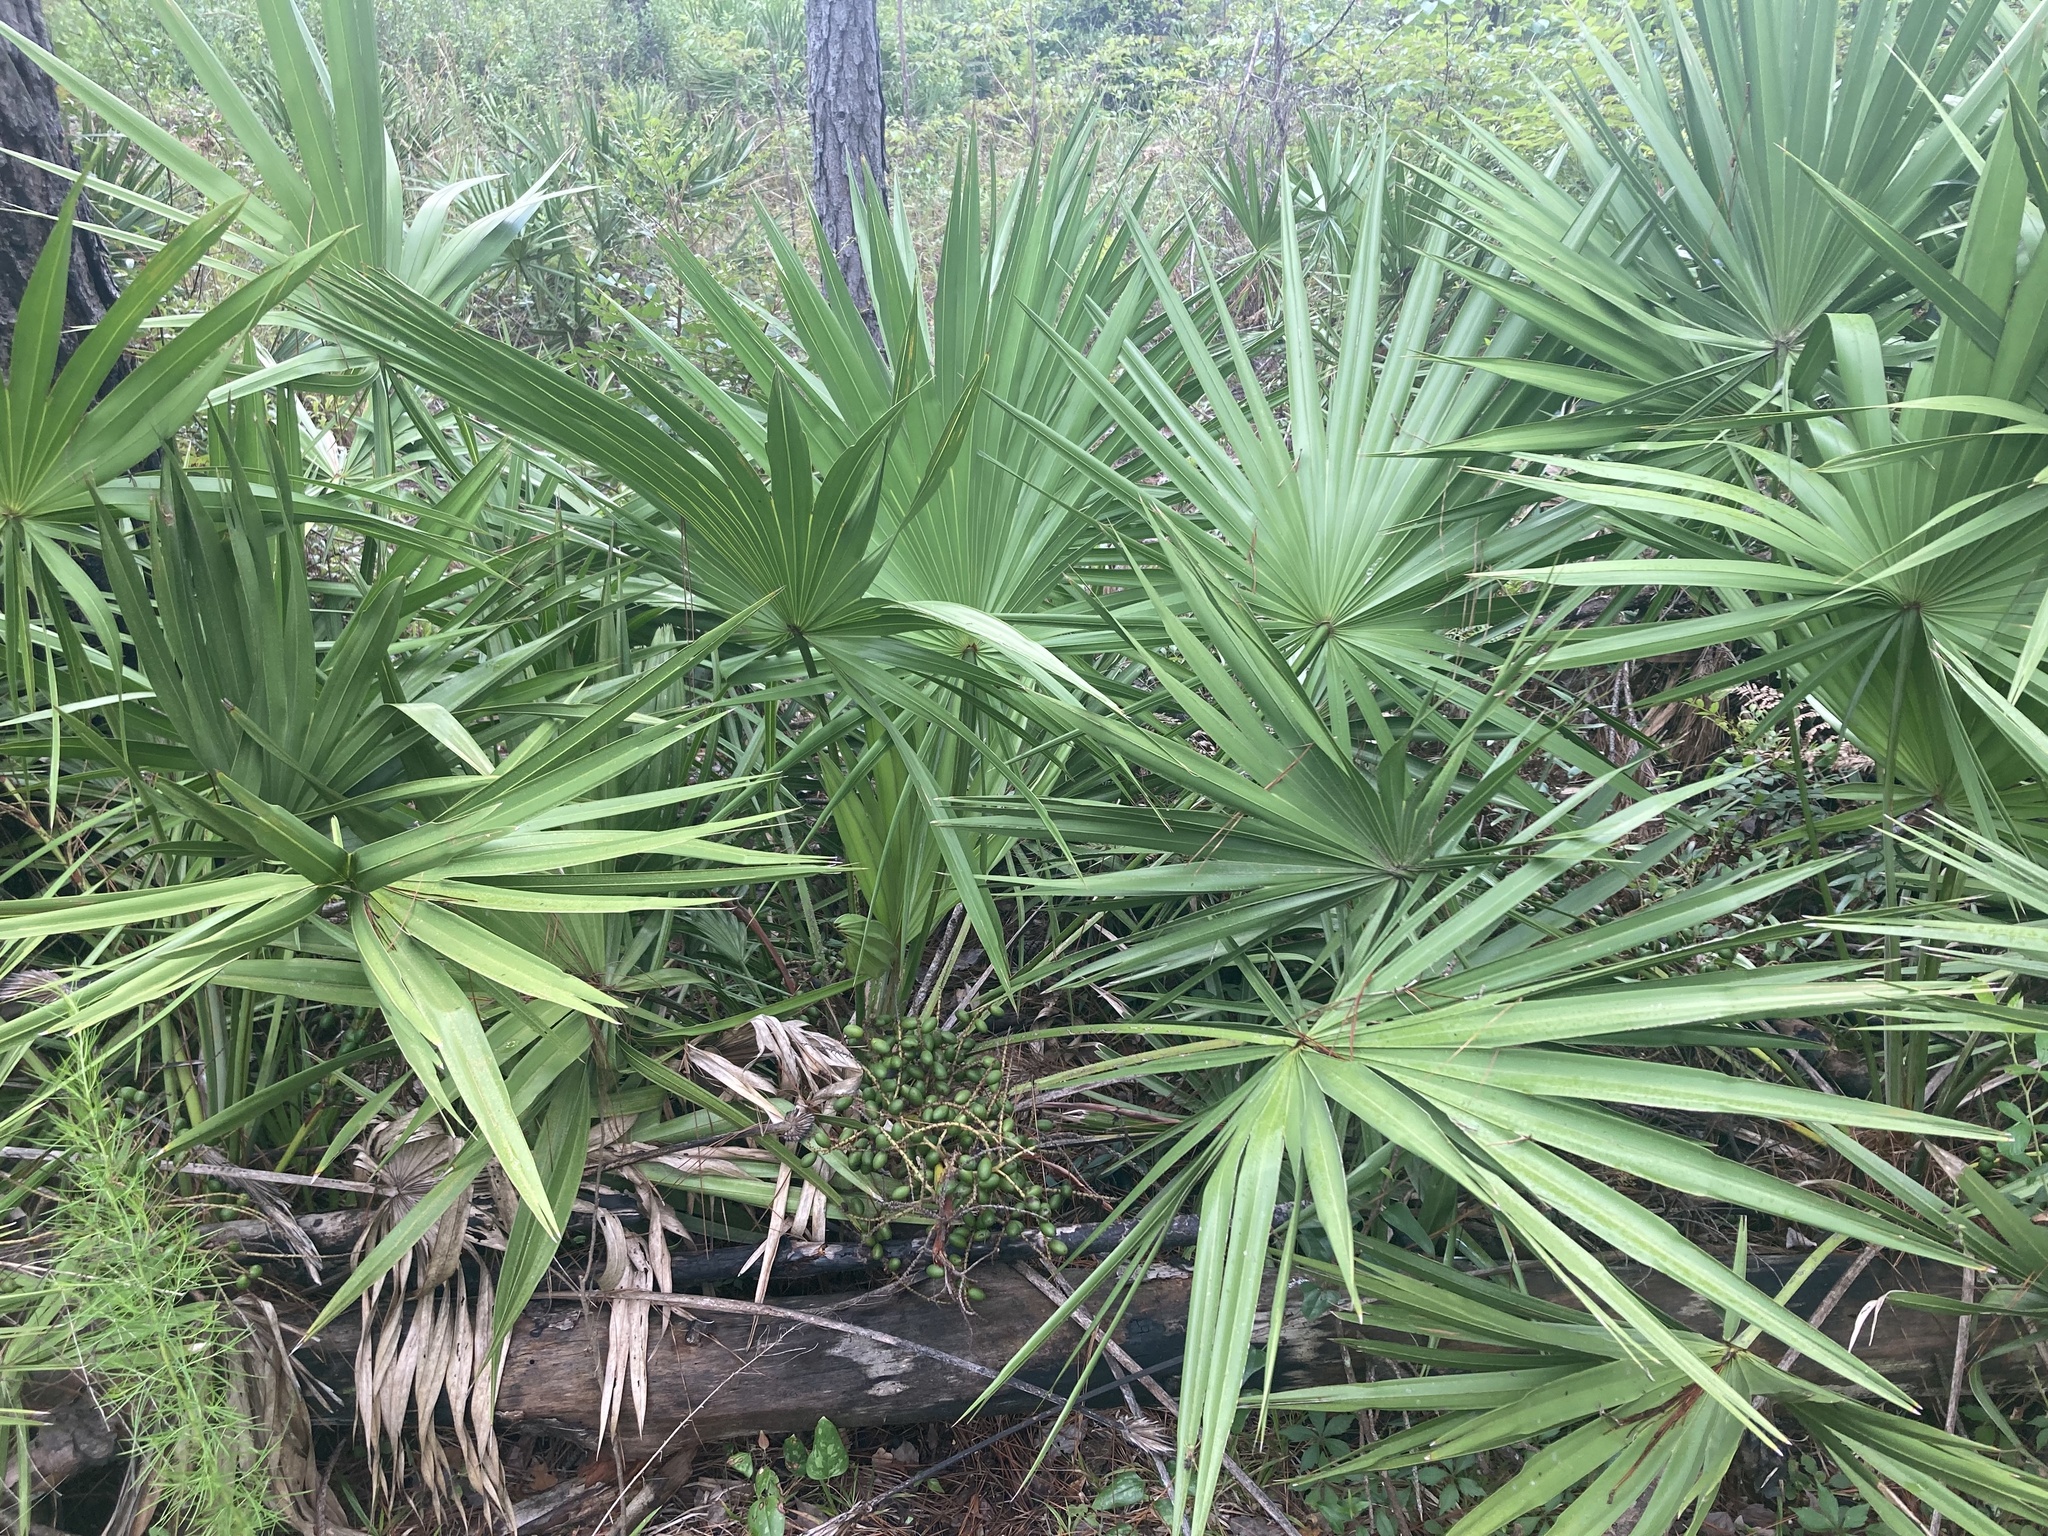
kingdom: Plantae
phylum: Tracheophyta
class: Liliopsida
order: Arecales
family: Arecaceae
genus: Serenoa
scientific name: Serenoa repens
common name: Saw-palmetto
